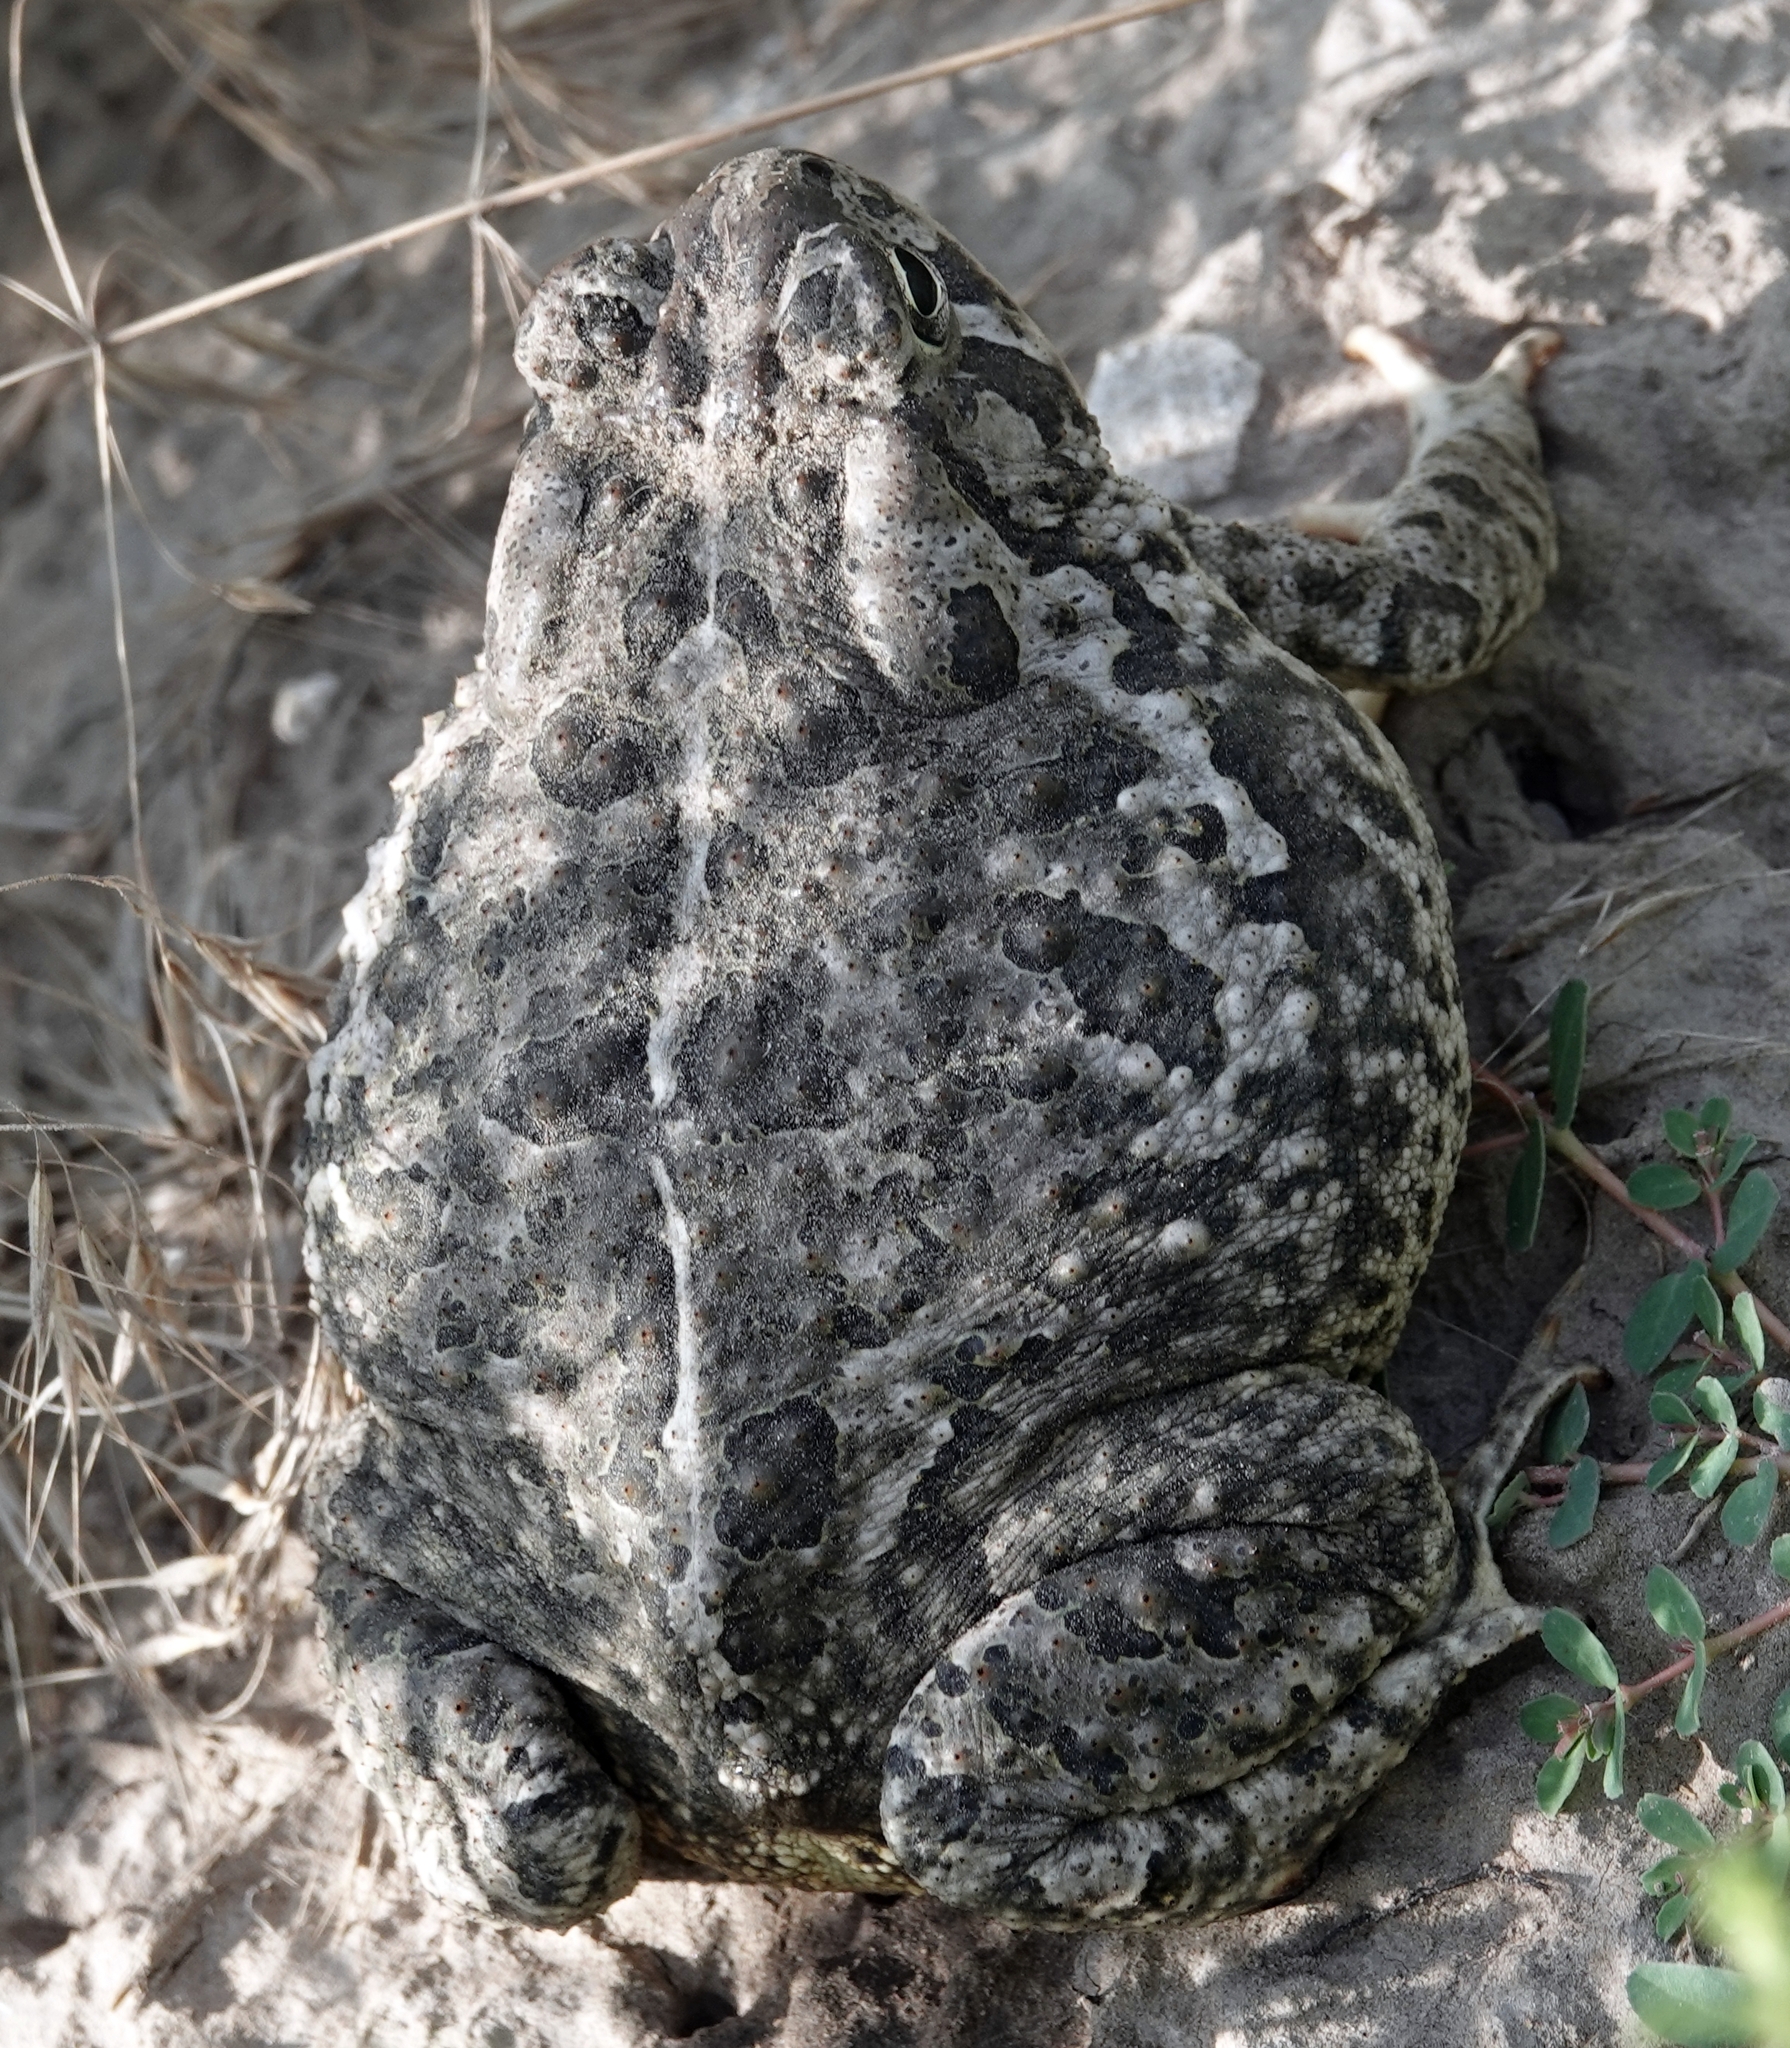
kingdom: Animalia
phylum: Chordata
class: Amphibia
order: Anura
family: Bufonidae
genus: Anaxyrus
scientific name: Anaxyrus woodhousii
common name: Woodhouse's toad
